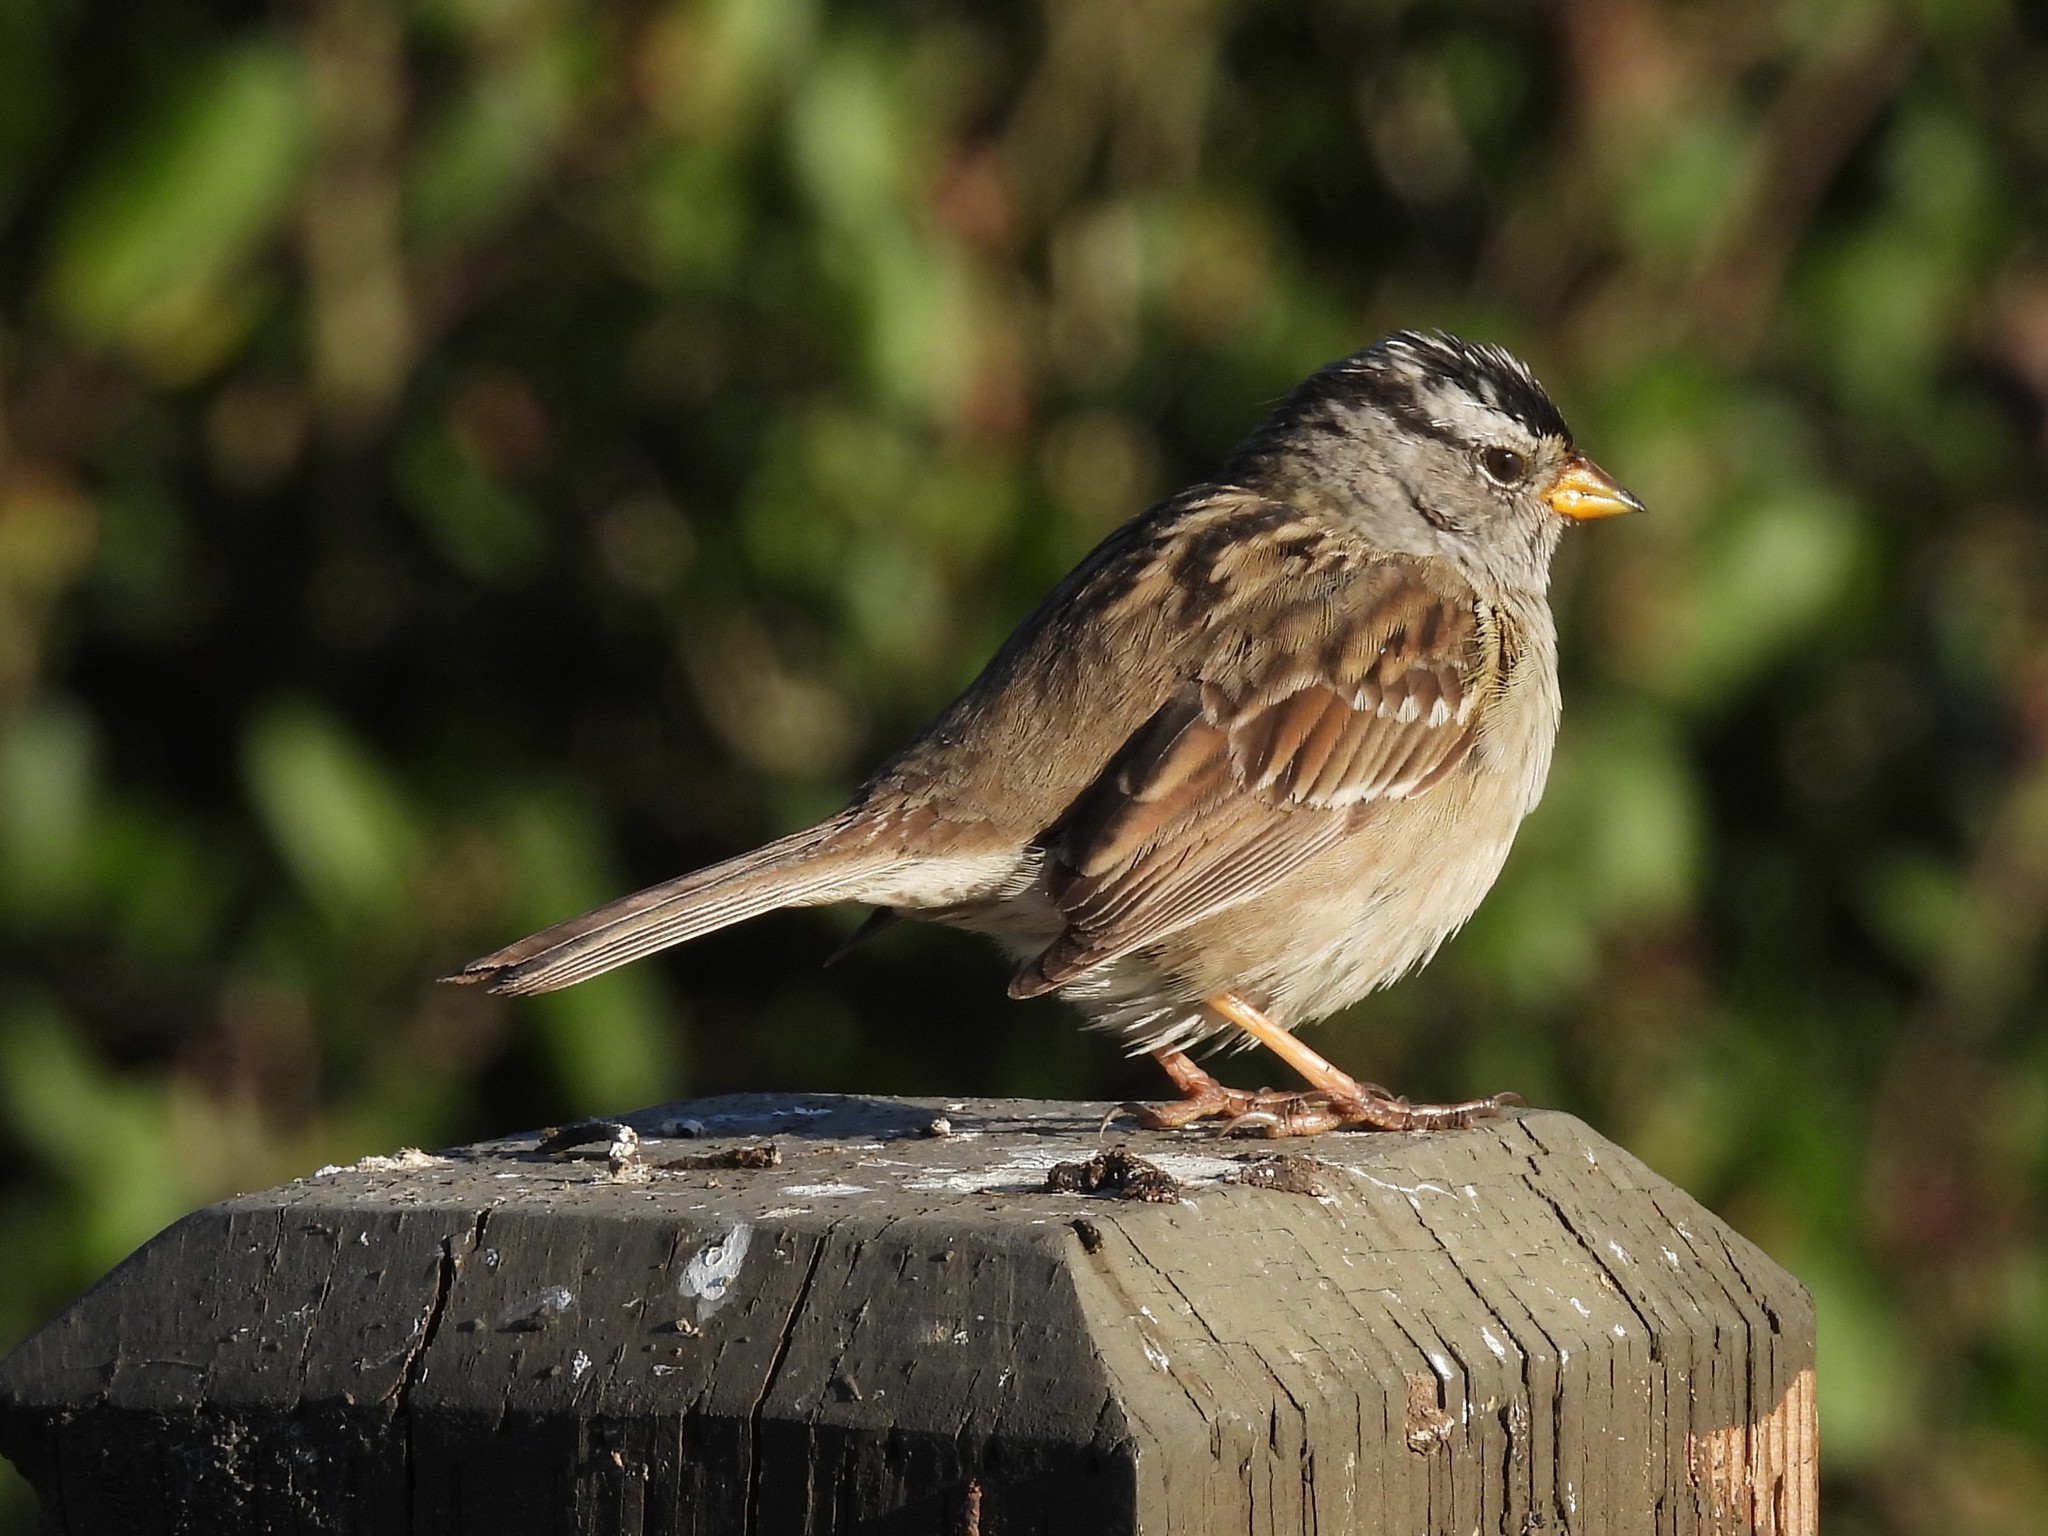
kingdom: Animalia
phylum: Chordata
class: Aves
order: Passeriformes
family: Passerellidae
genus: Zonotrichia
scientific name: Zonotrichia leucophrys
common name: White-crowned sparrow
